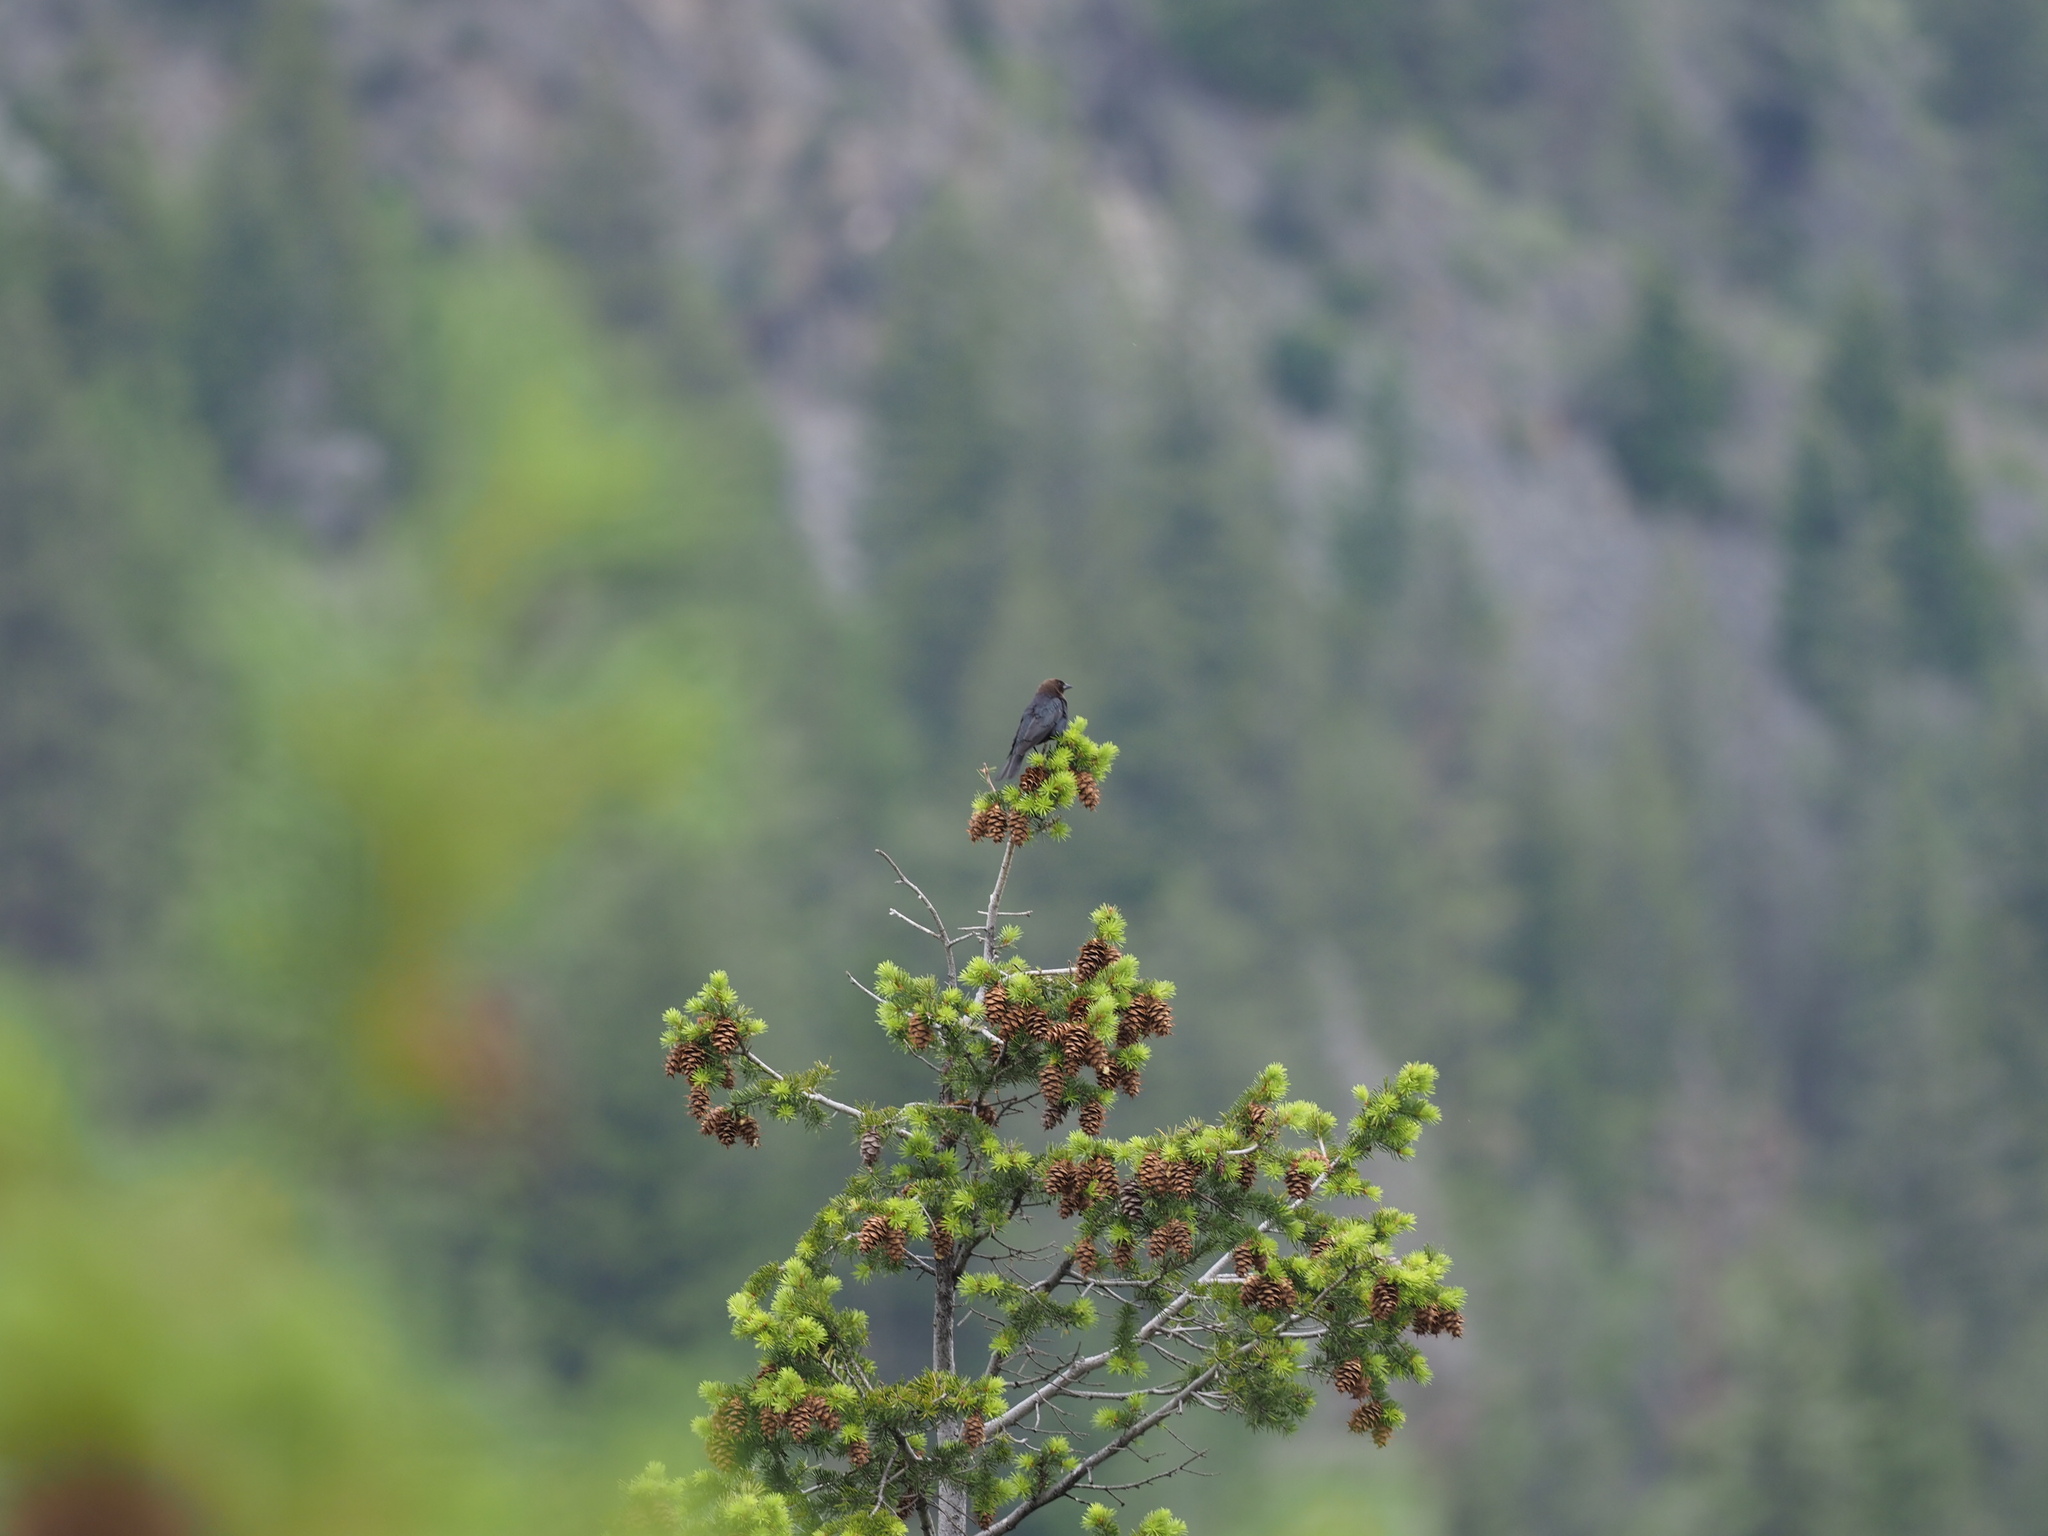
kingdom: Animalia
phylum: Chordata
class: Aves
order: Passeriformes
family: Icteridae
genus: Molothrus
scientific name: Molothrus ater
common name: Brown-headed cowbird
